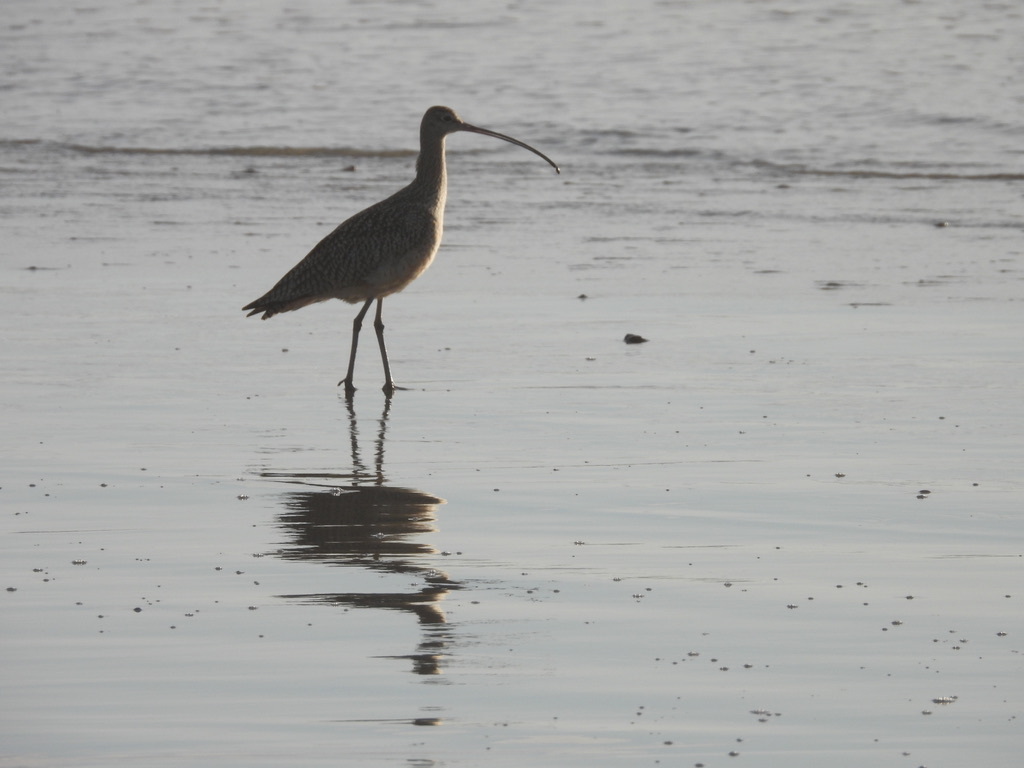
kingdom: Animalia
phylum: Chordata
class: Aves
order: Charadriiformes
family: Scolopacidae
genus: Numenius
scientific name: Numenius americanus
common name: Long-billed curlew
